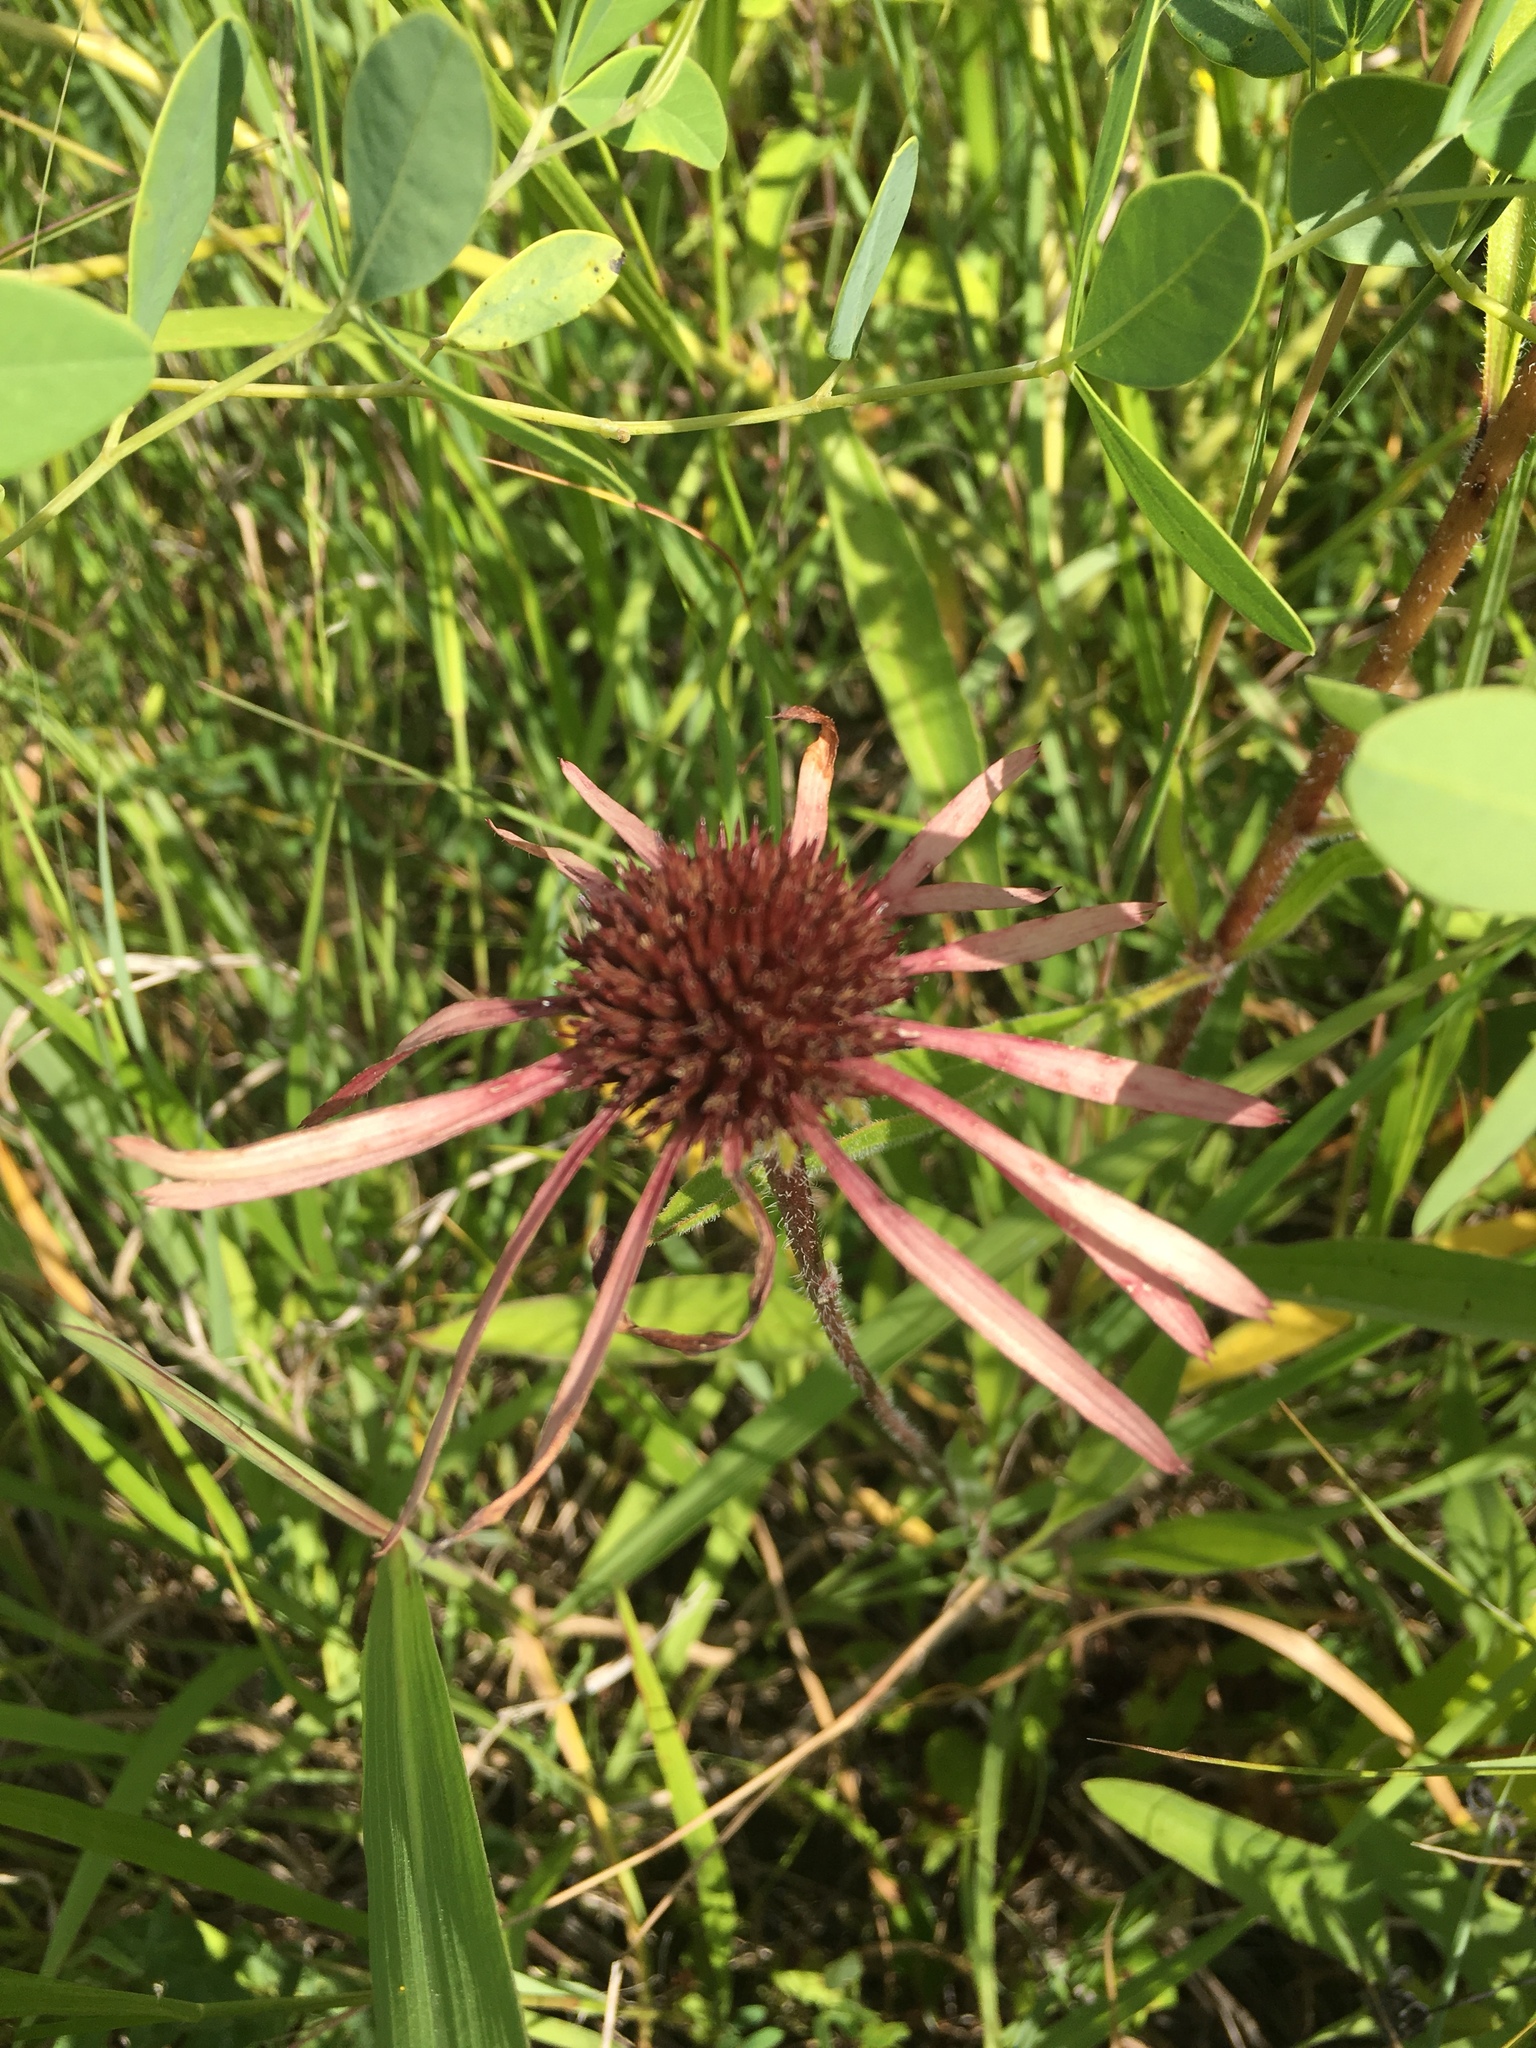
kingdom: Plantae
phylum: Tracheophyta
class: Magnoliopsida
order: Asterales
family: Asteraceae
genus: Echinacea
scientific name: Echinacea pallida
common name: Pale echinacea
